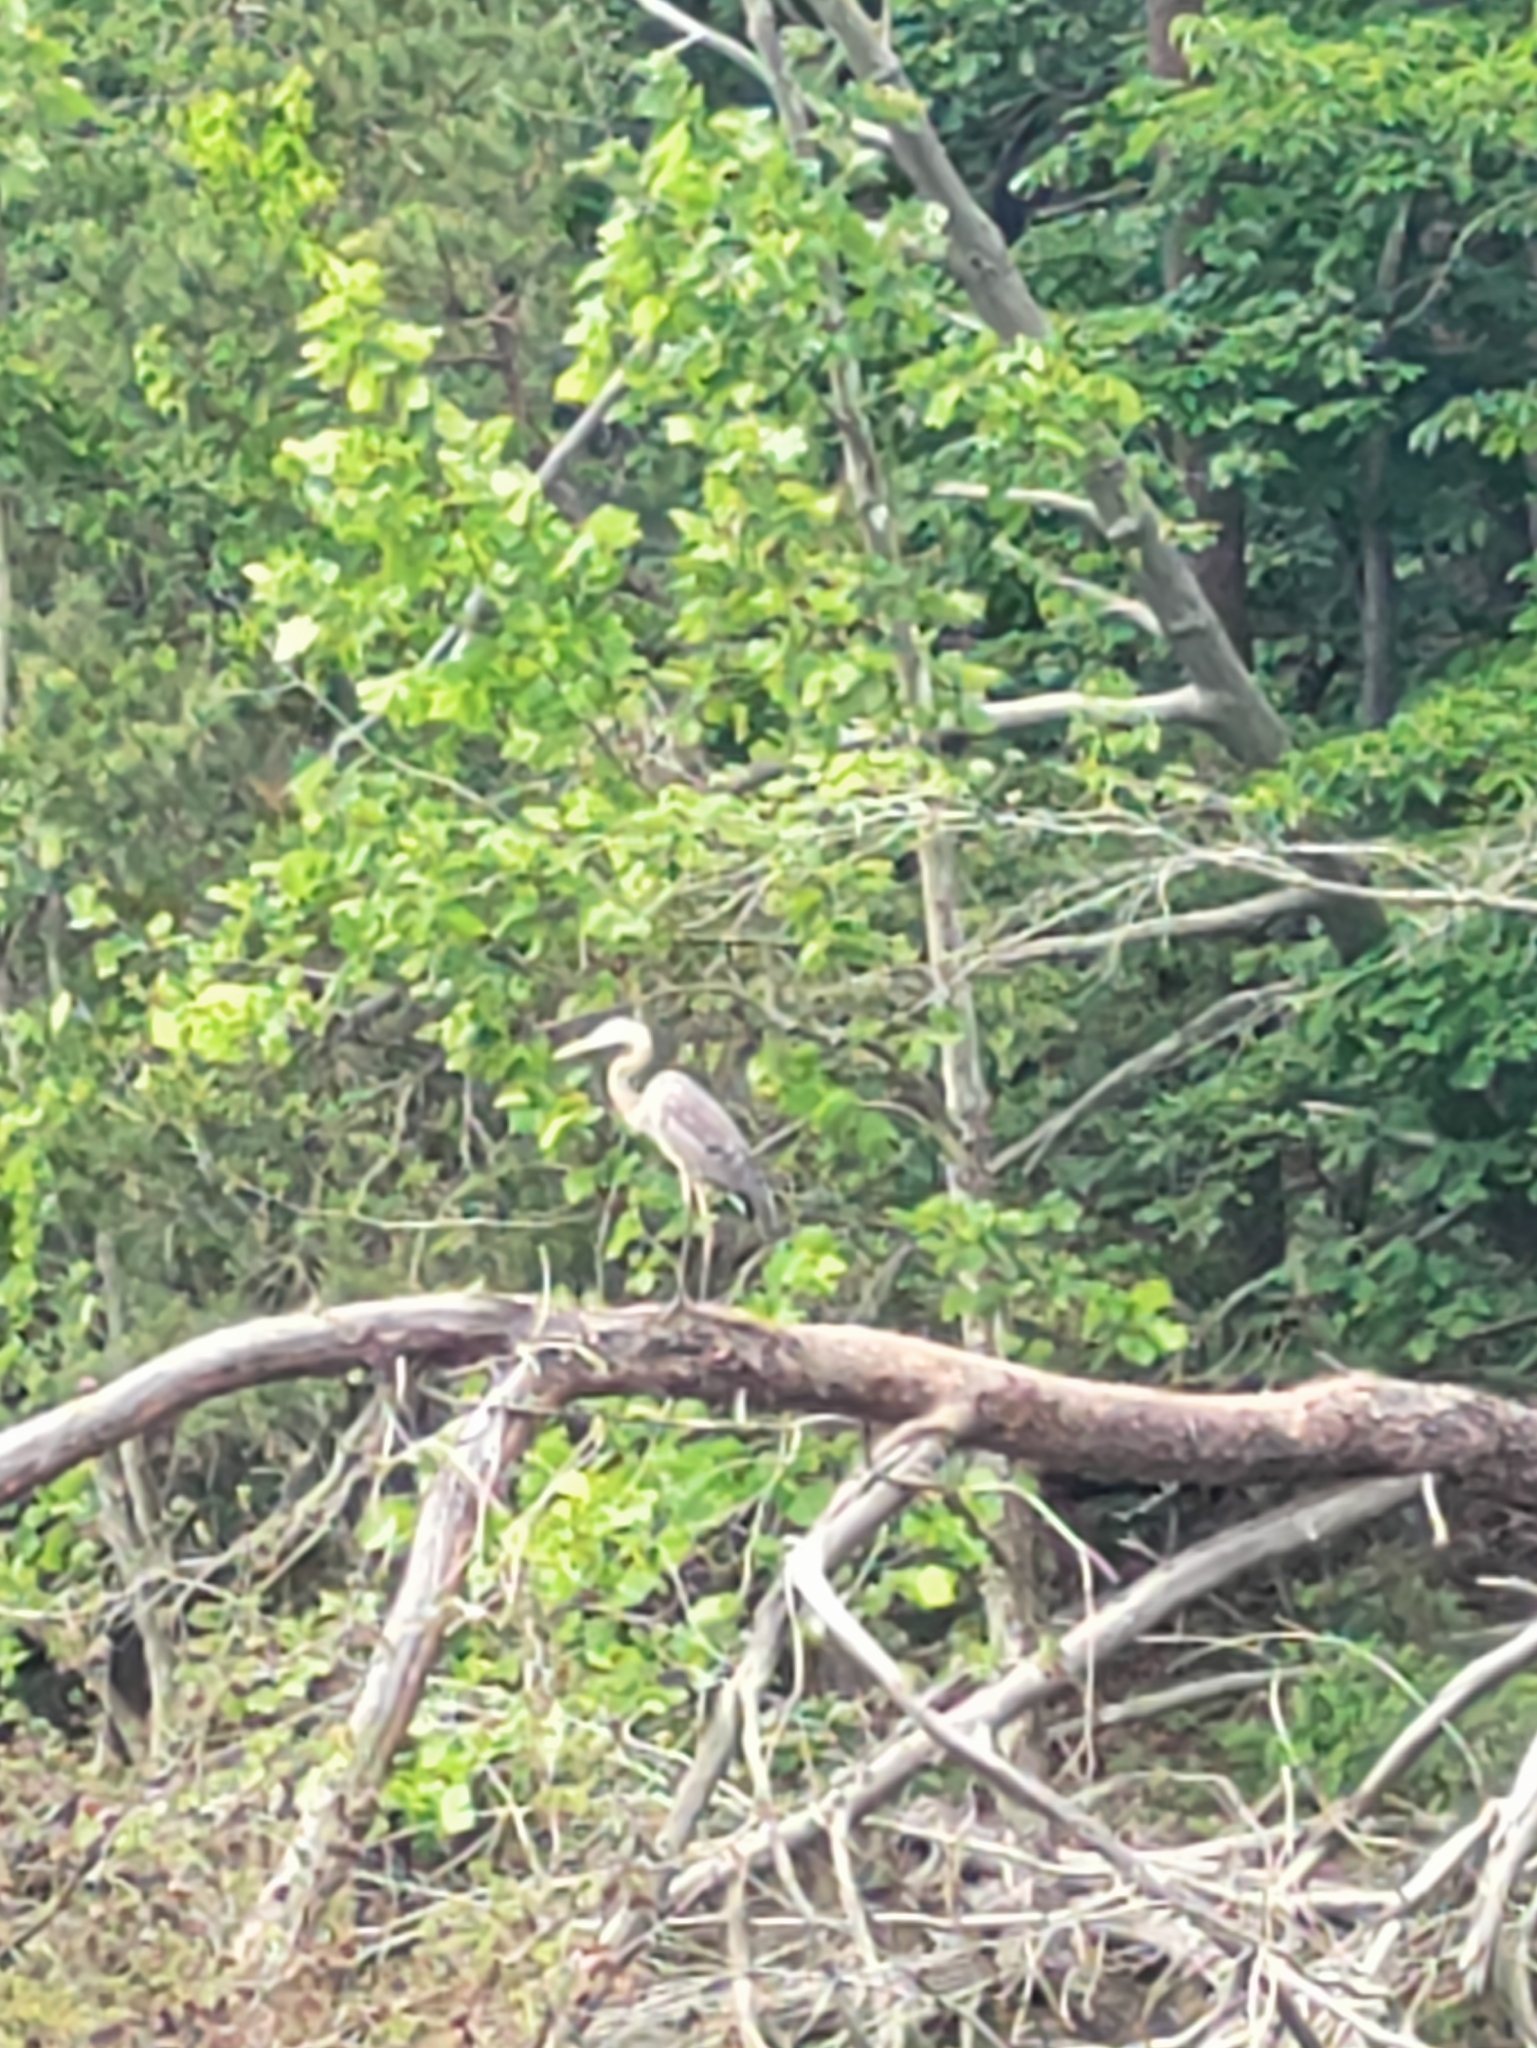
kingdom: Animalia
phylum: Chordata
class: Aves
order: Pelecaniformes
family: Ardeidae
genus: Ardea
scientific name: Ardea herodias
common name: Great blue heron
